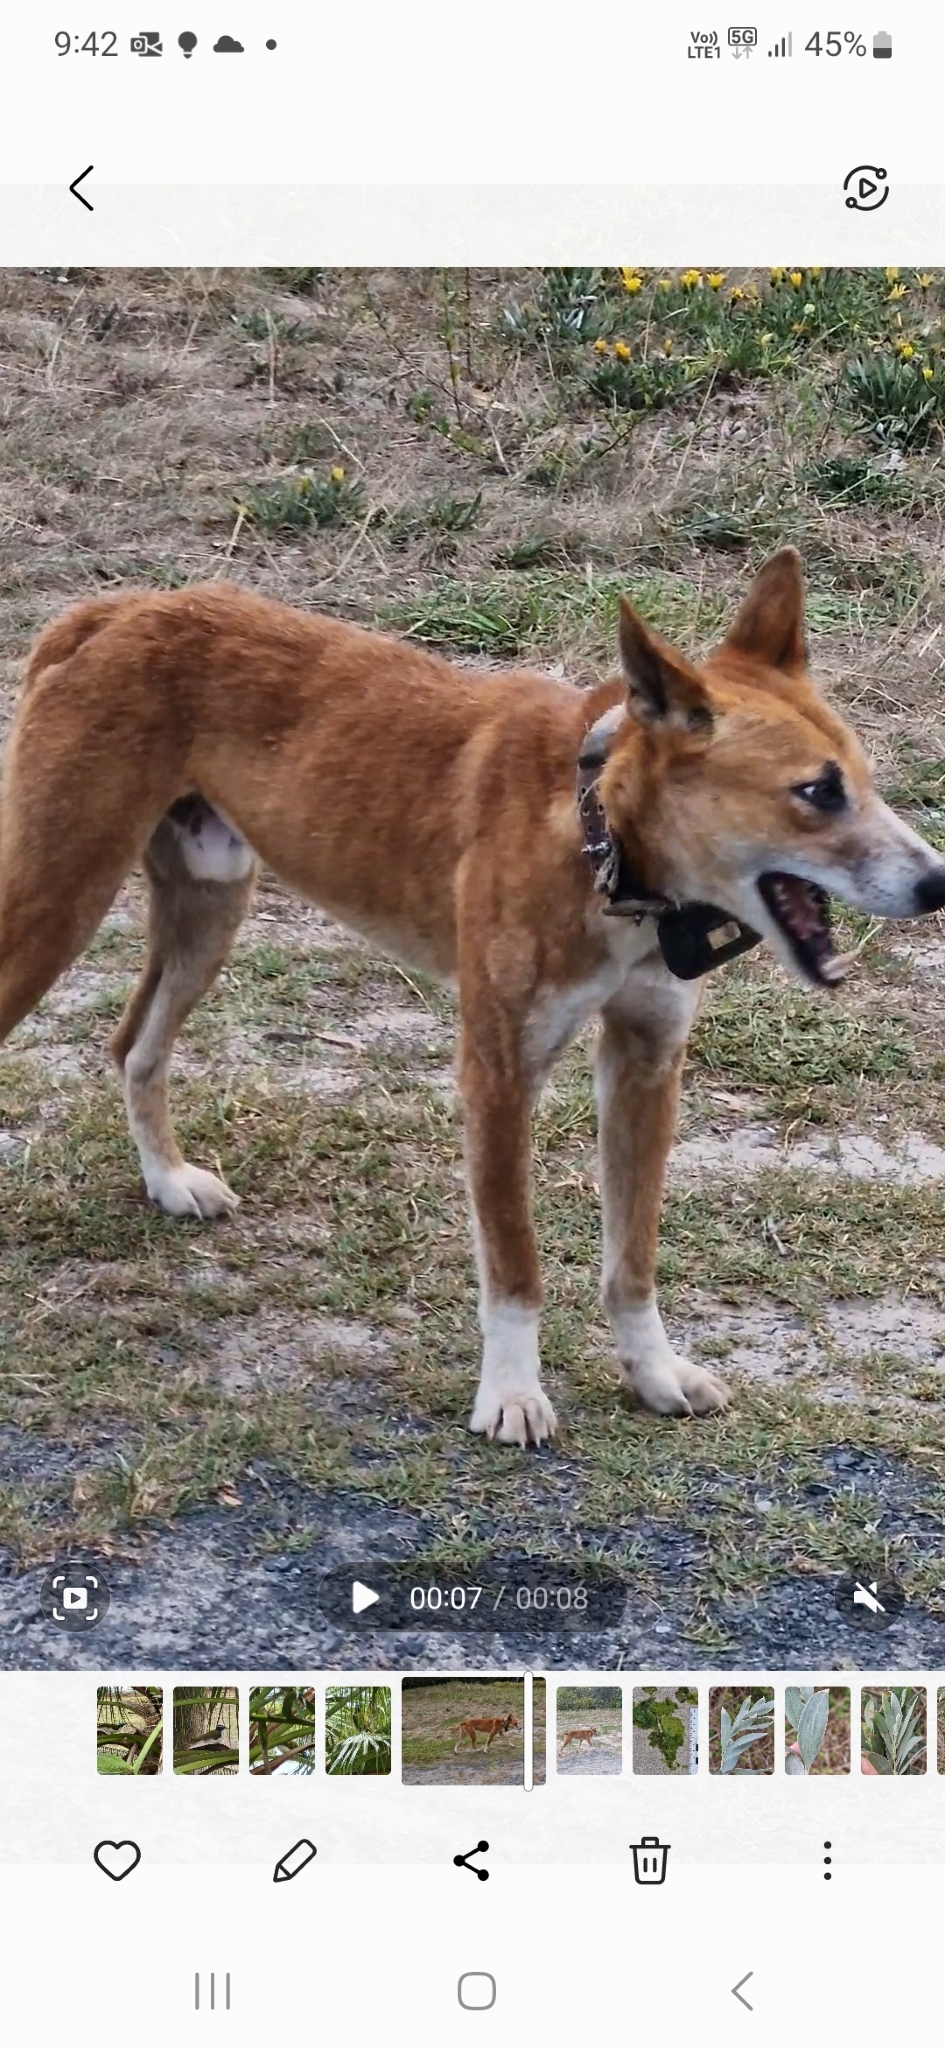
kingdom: Animalia
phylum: Chordata
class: Mammalia
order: Carnivora
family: Canidae
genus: Canis
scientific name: Canis lupus
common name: Gray wolf
